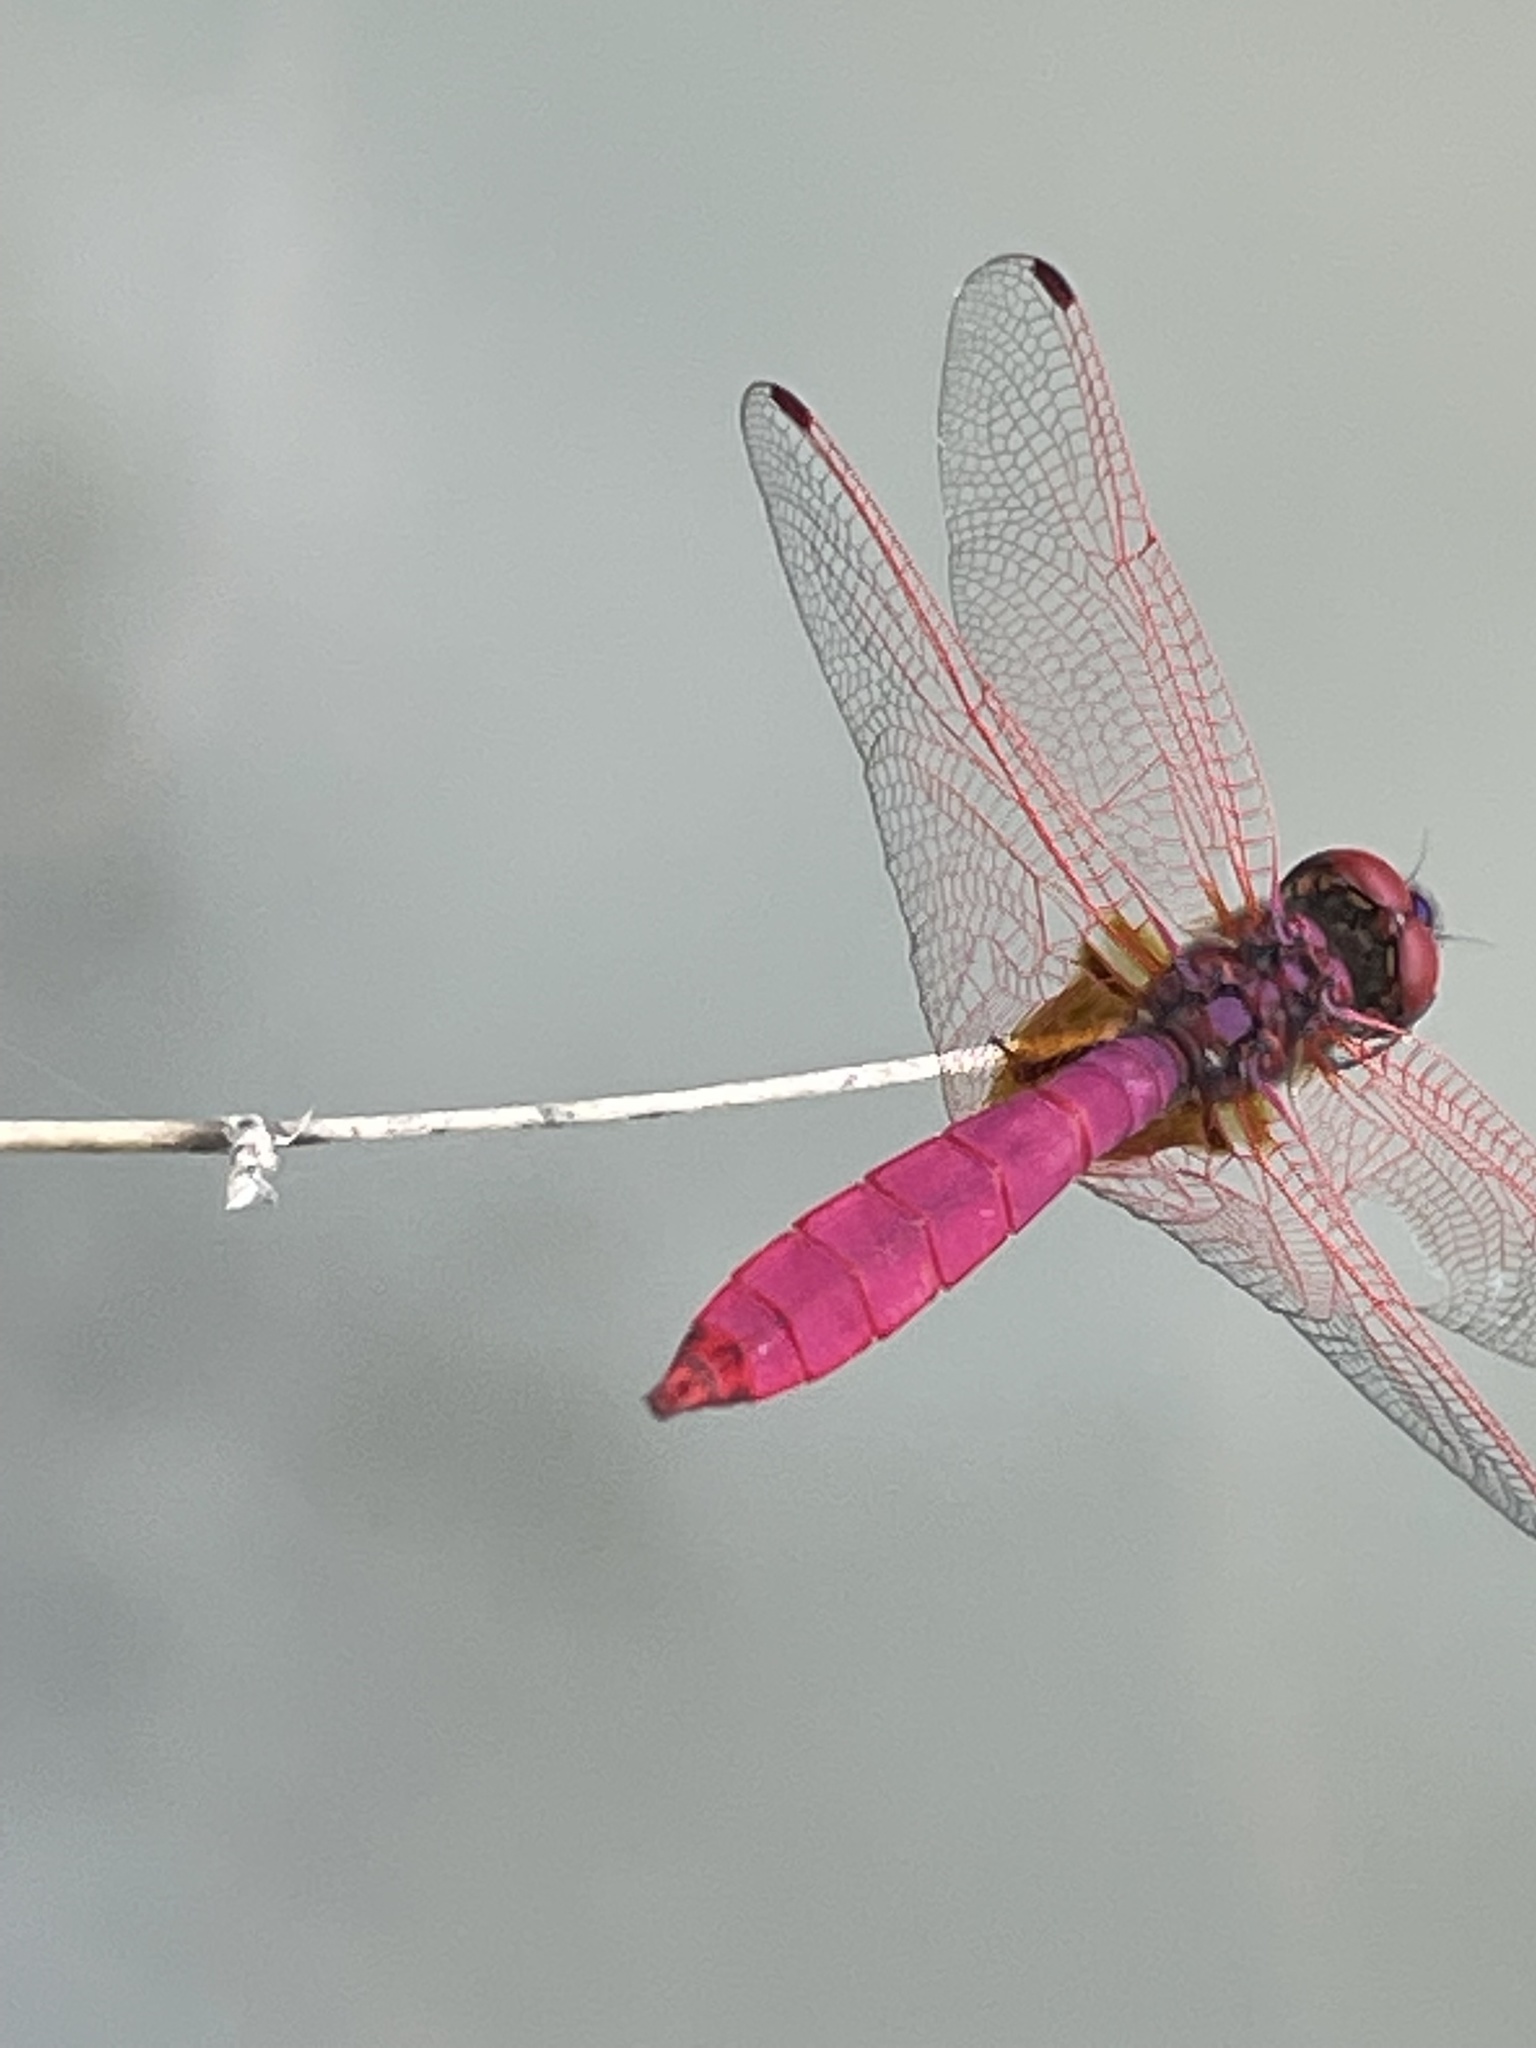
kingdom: Animalia
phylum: Arthropoda
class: Insecta
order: Odonata
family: Libellulidae
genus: Trithemis
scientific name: Trithemis aurora
